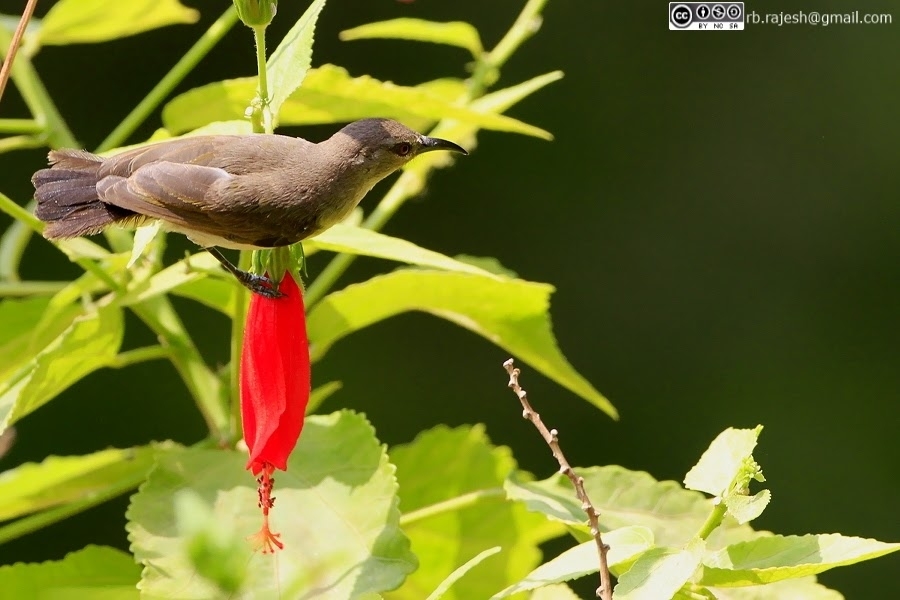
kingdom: Animalia
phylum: Chordata
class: Aves
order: Passeriformes
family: Nectariniidae
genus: Leptocoma
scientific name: Leptocoma zeylonica
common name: Purple-rumped sunbird
